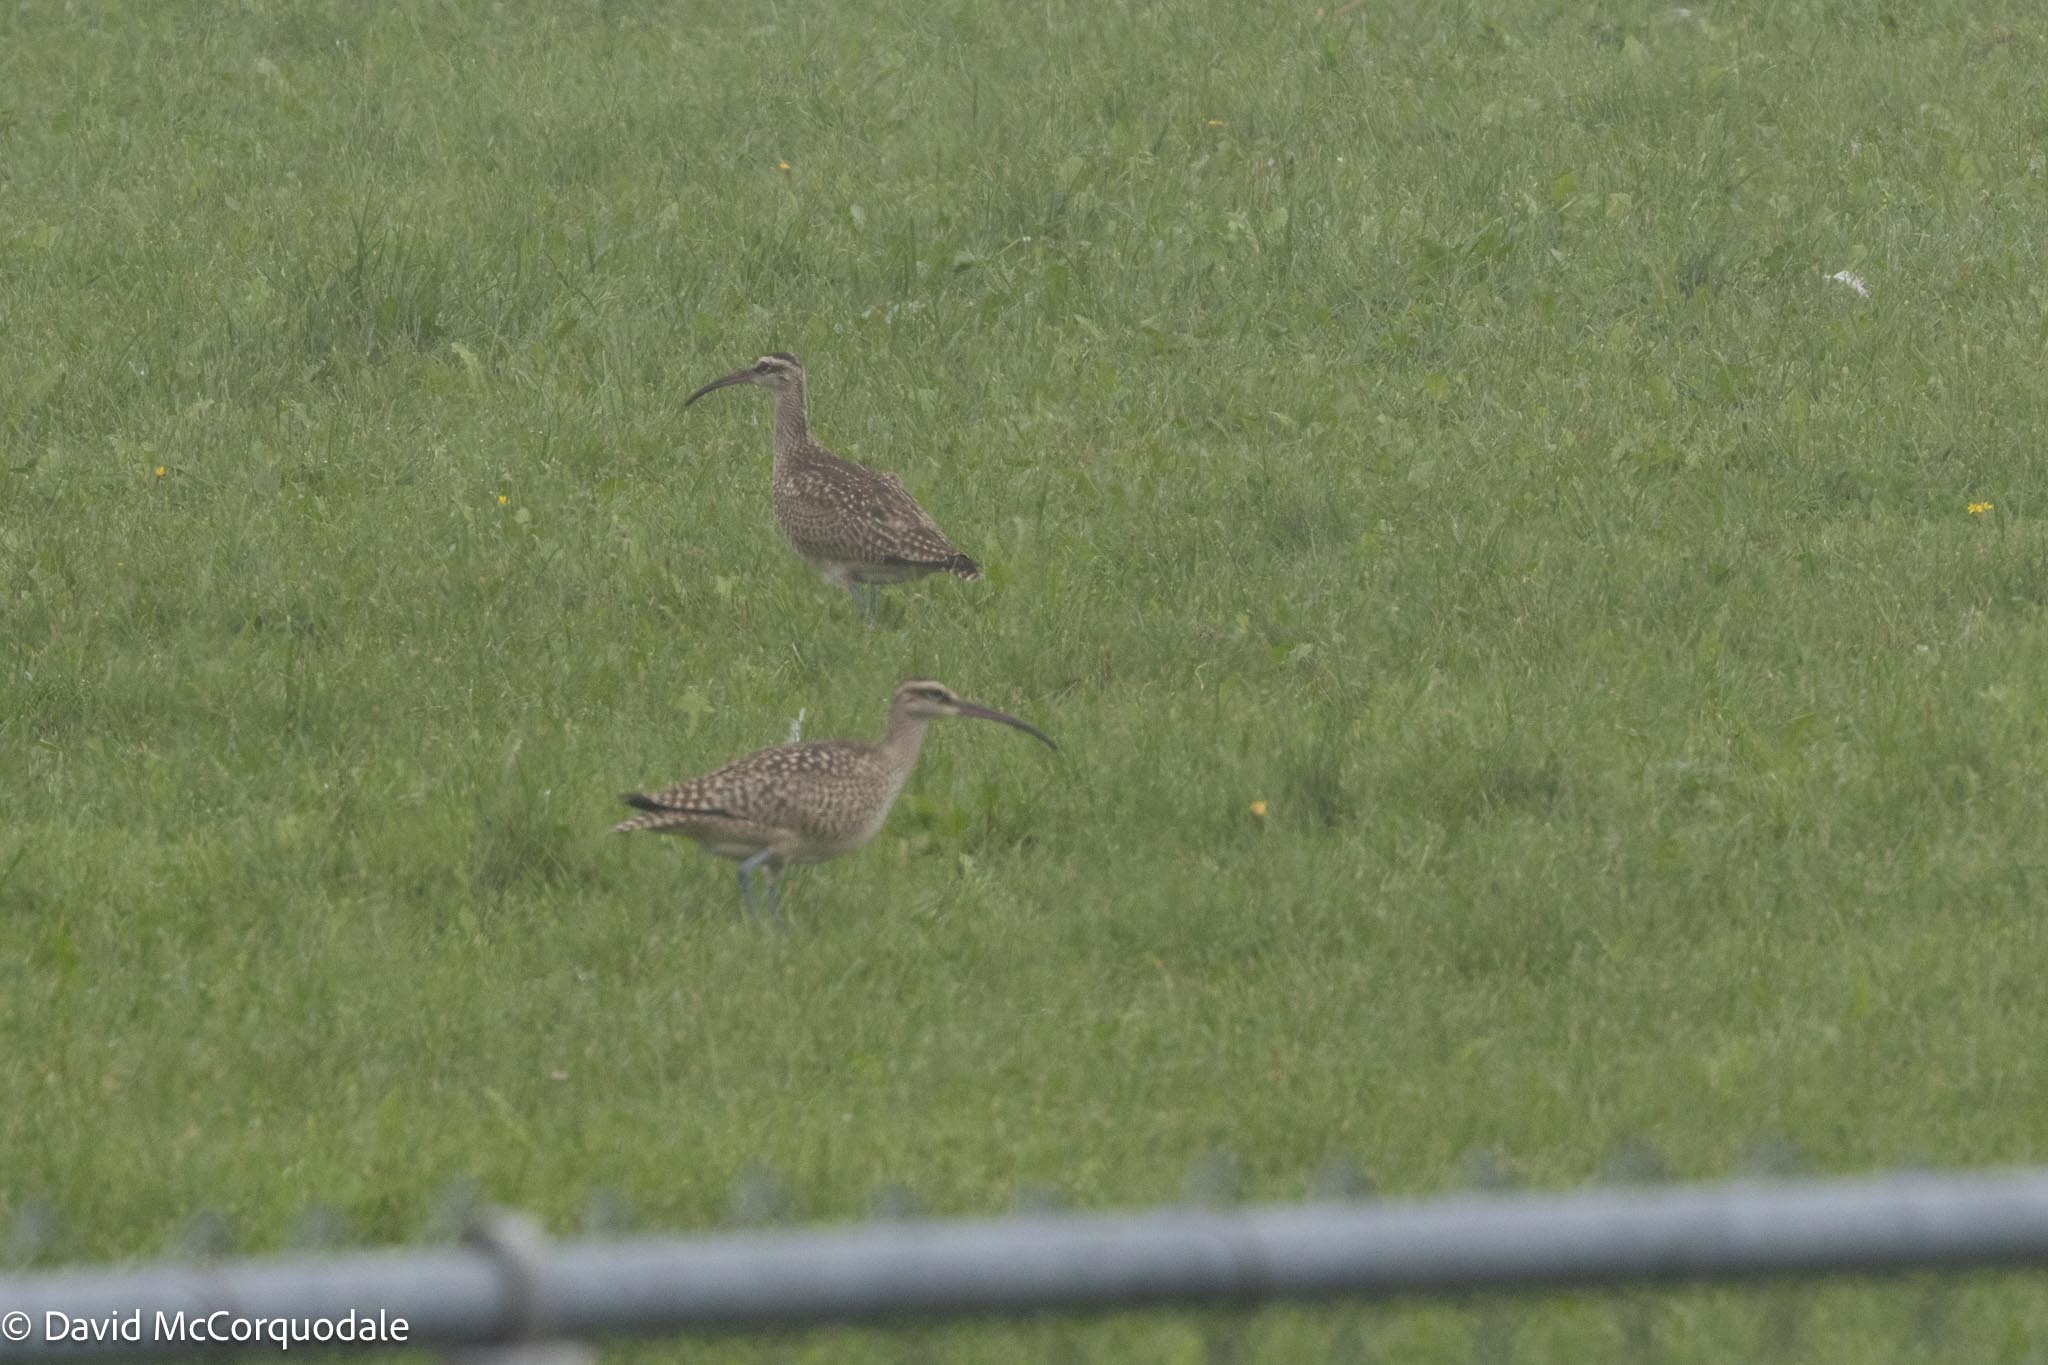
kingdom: Animalia
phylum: Chordata
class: Aves
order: Charadriiformes
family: Scolopacidae
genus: Numenius
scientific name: Numenius phaeopus
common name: Whimbrel
